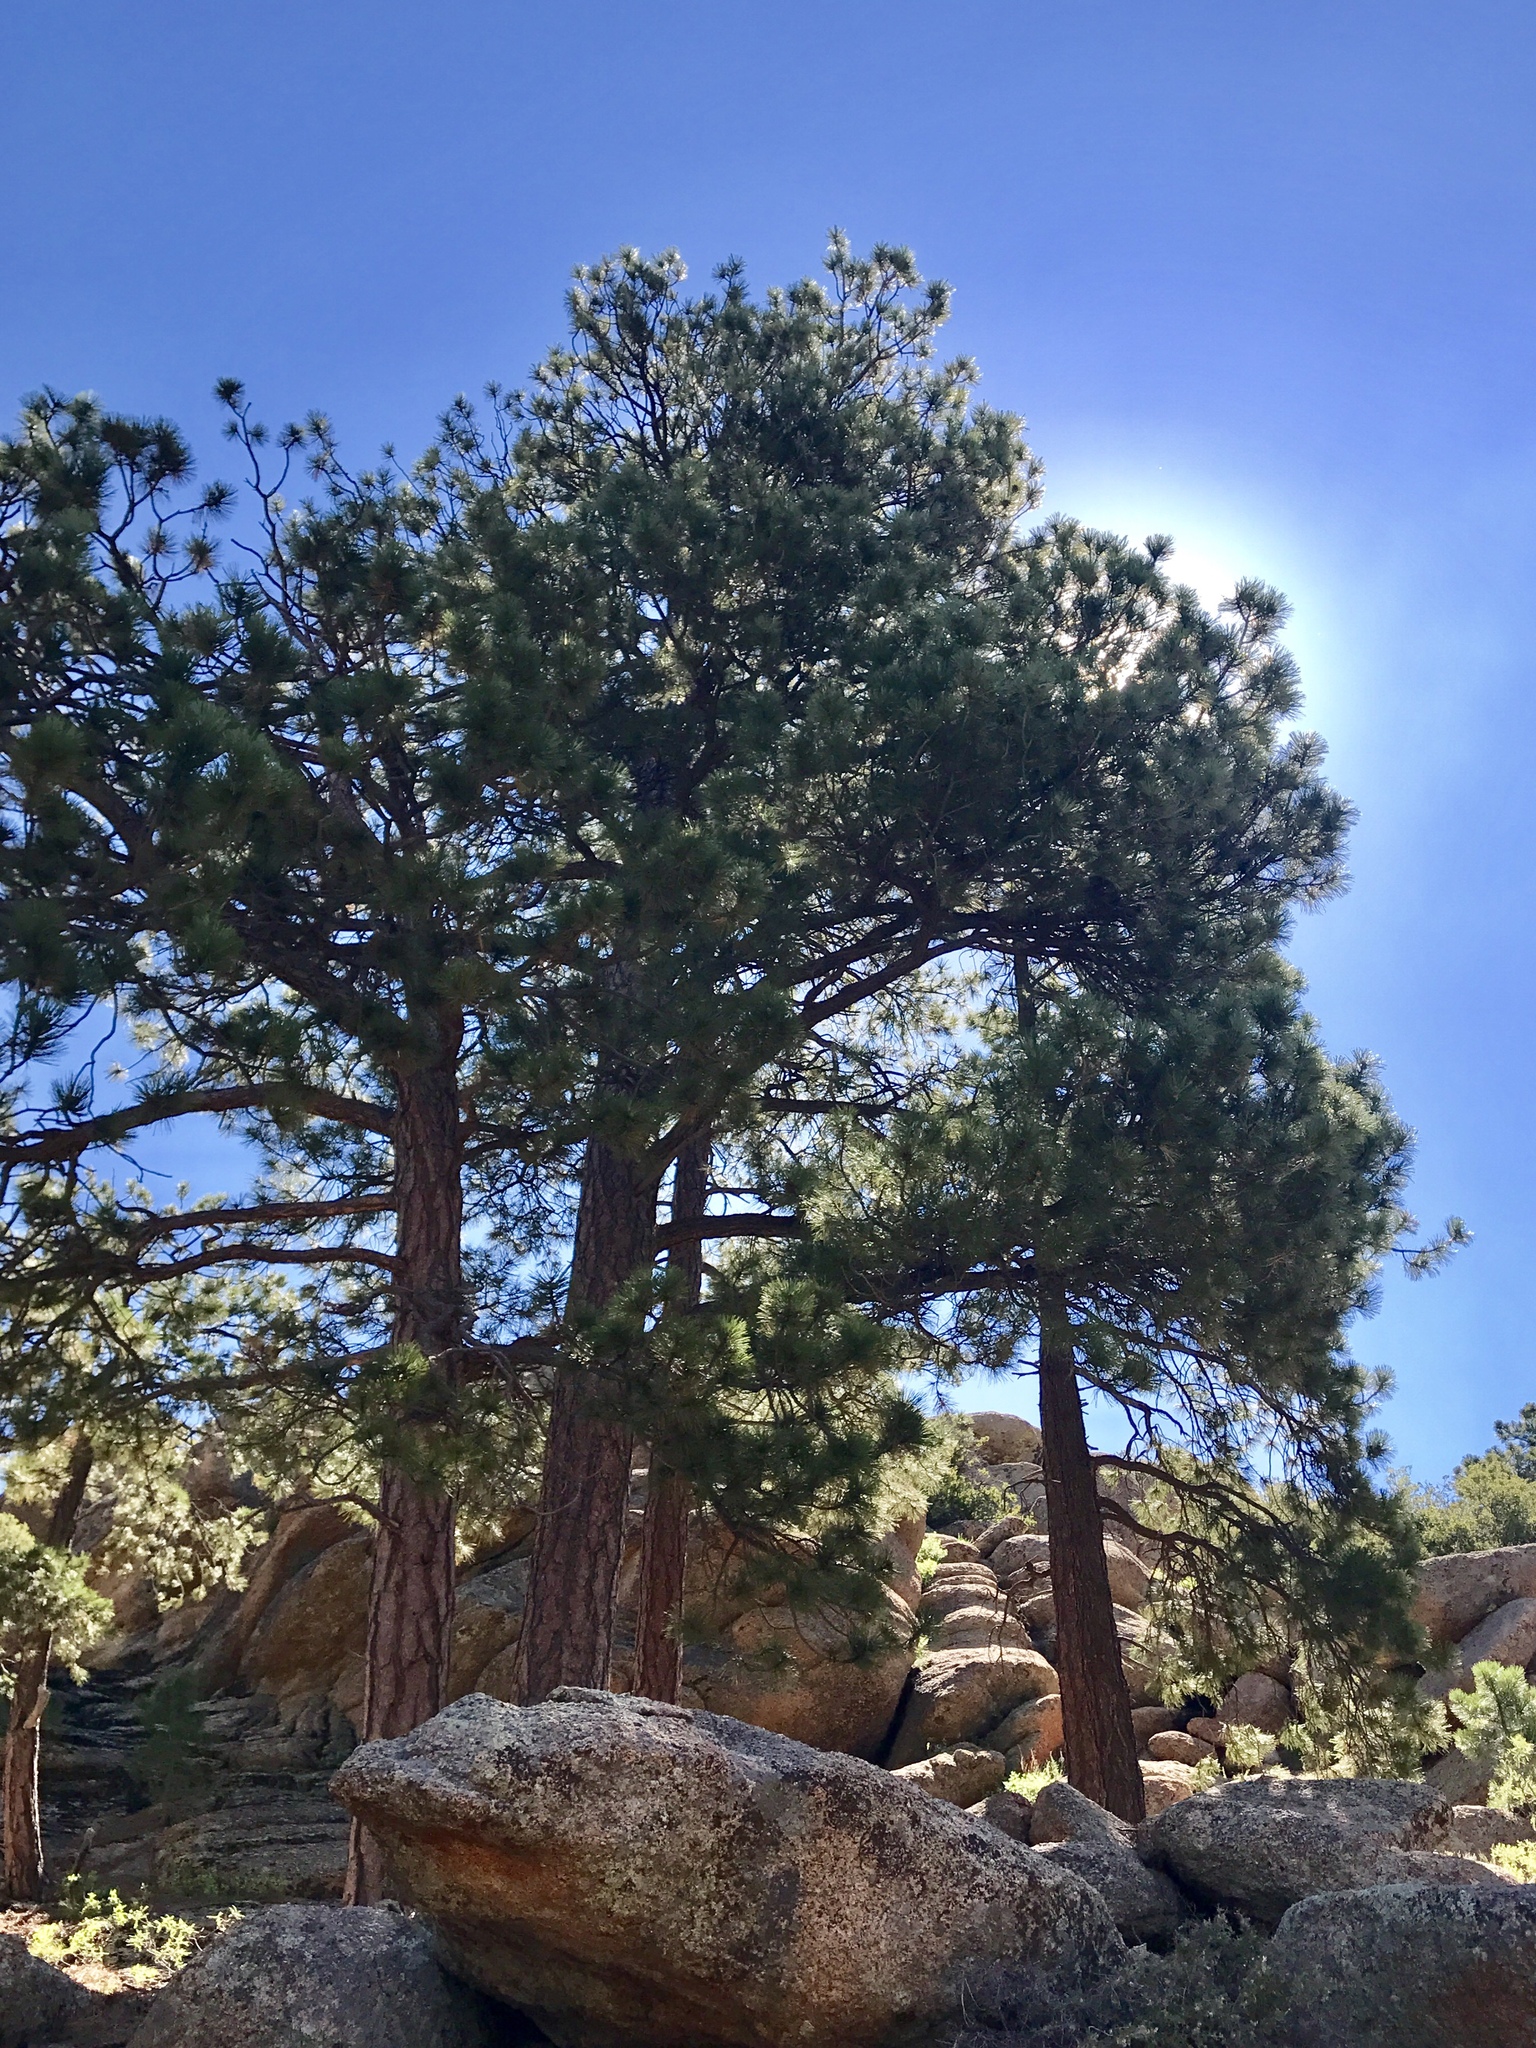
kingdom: Plantae
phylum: Tracheophyta
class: Pinopsida
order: Pinales
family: Pinaceae
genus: Pinus
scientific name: Pinus ponderosa
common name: Western yellow-pine
